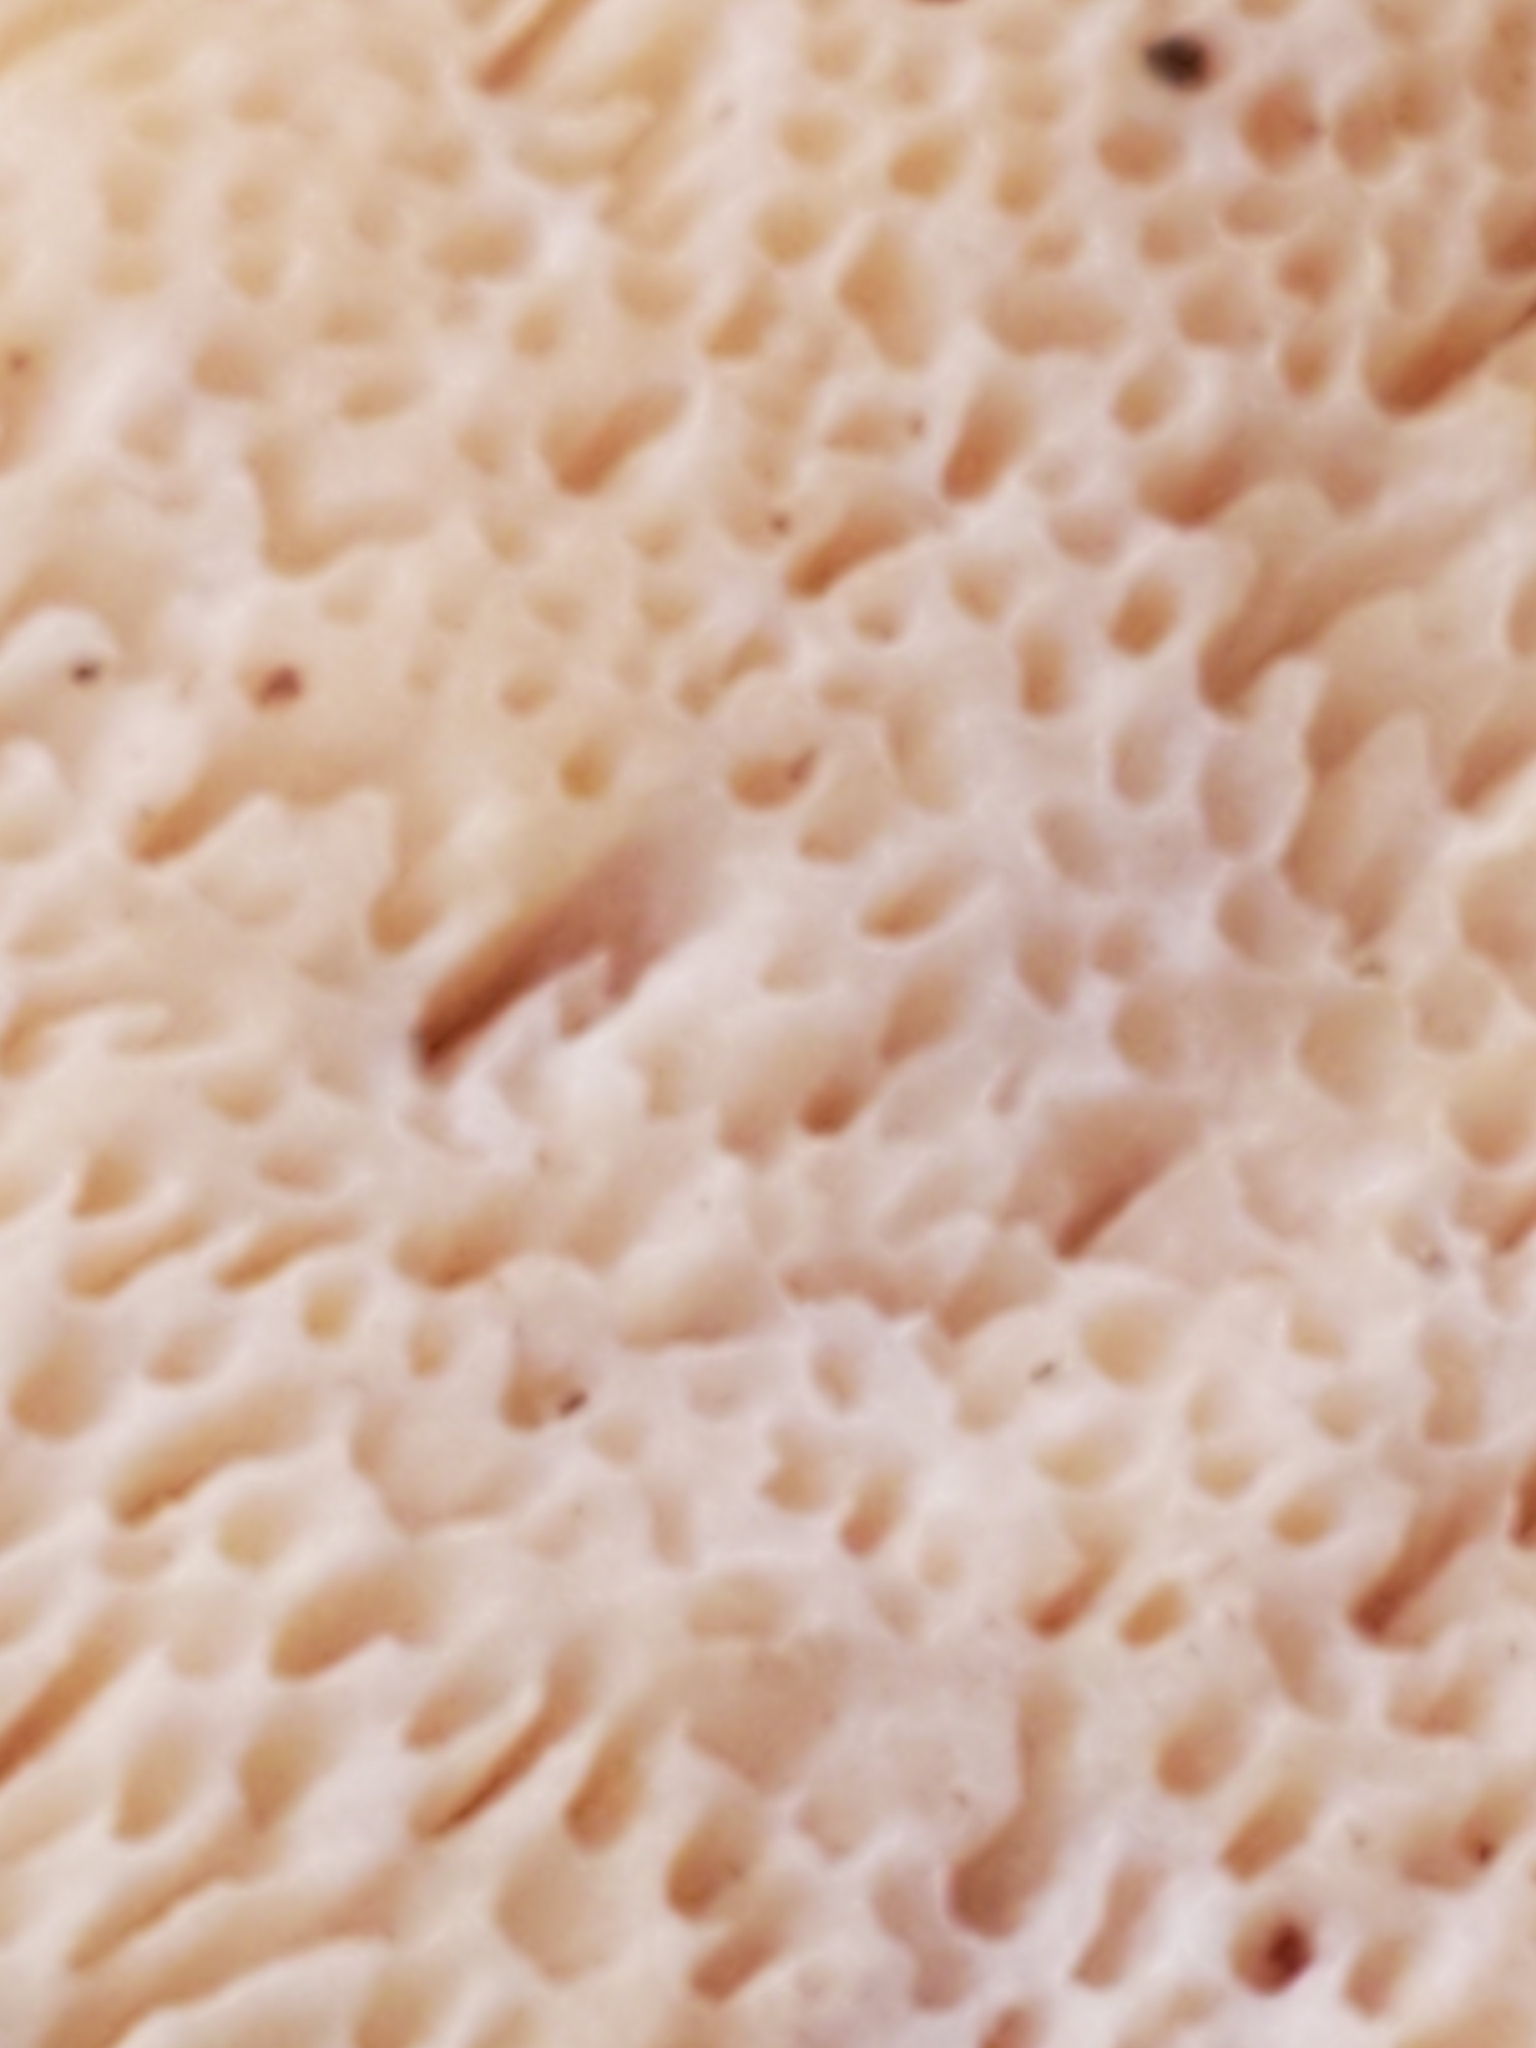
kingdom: Fungi
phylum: Basidiomycota
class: Agaricomycetes
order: Polyporales
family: Meruliaceae
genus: Irpiciporus
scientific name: Irpiciporus pachyodon
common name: Marshmallow polypore
